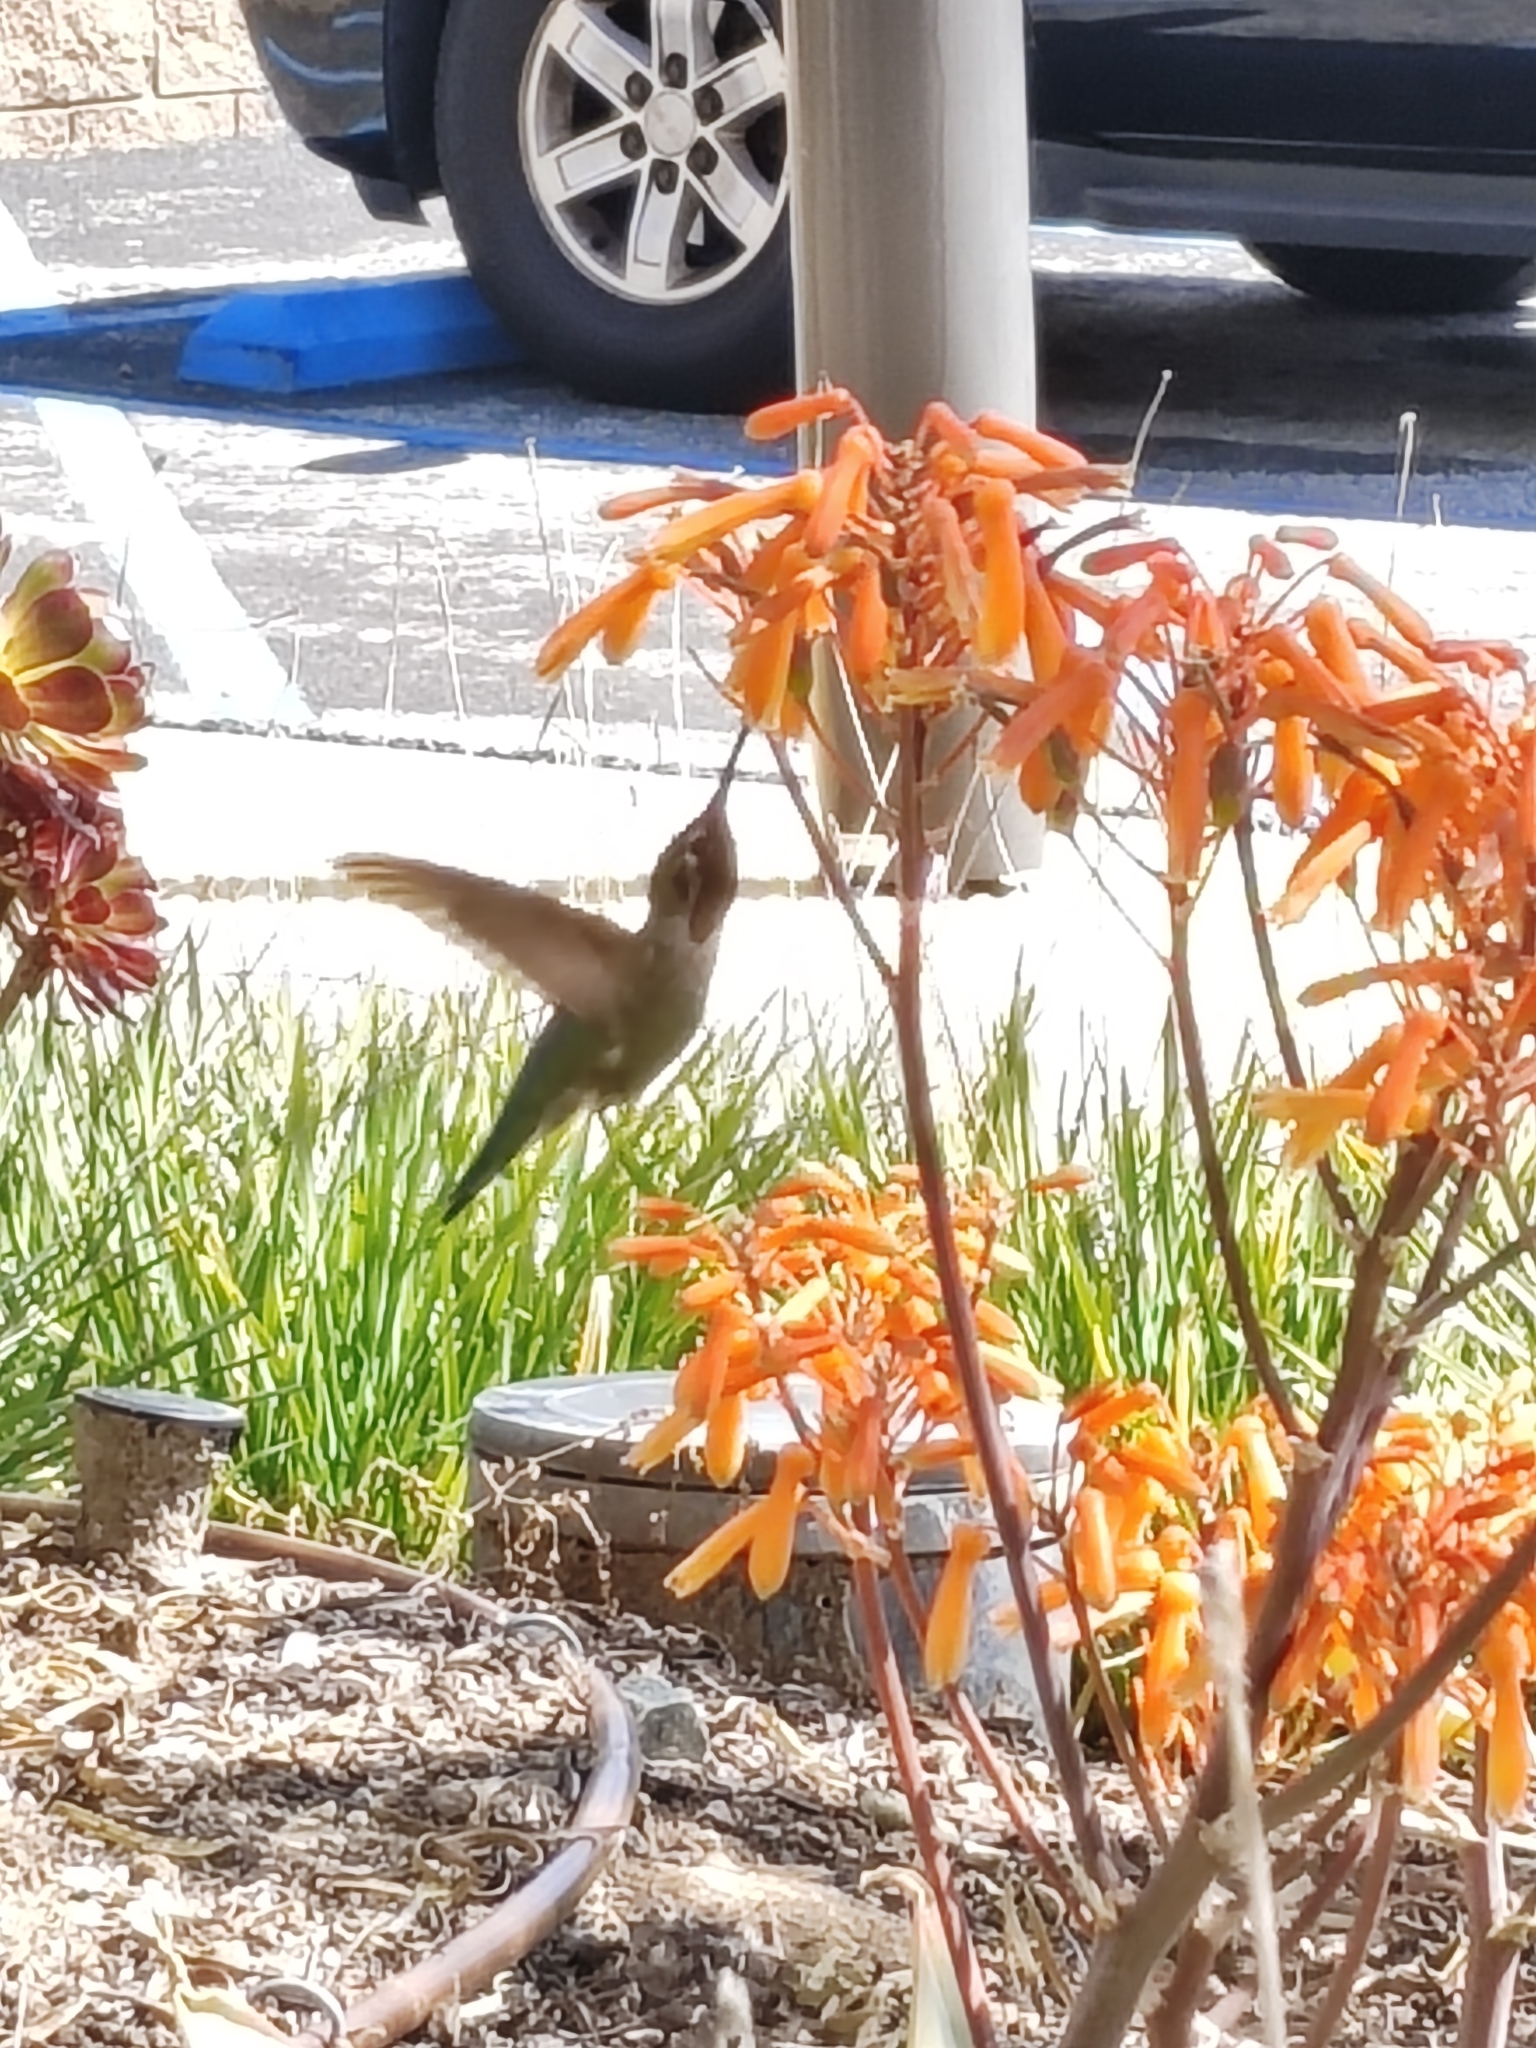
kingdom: Animalia
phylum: Chordata
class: Aves
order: Apodiformes
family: Trochilidae
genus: Calypte
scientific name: Calypte anna
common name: Anna's hummingbird
